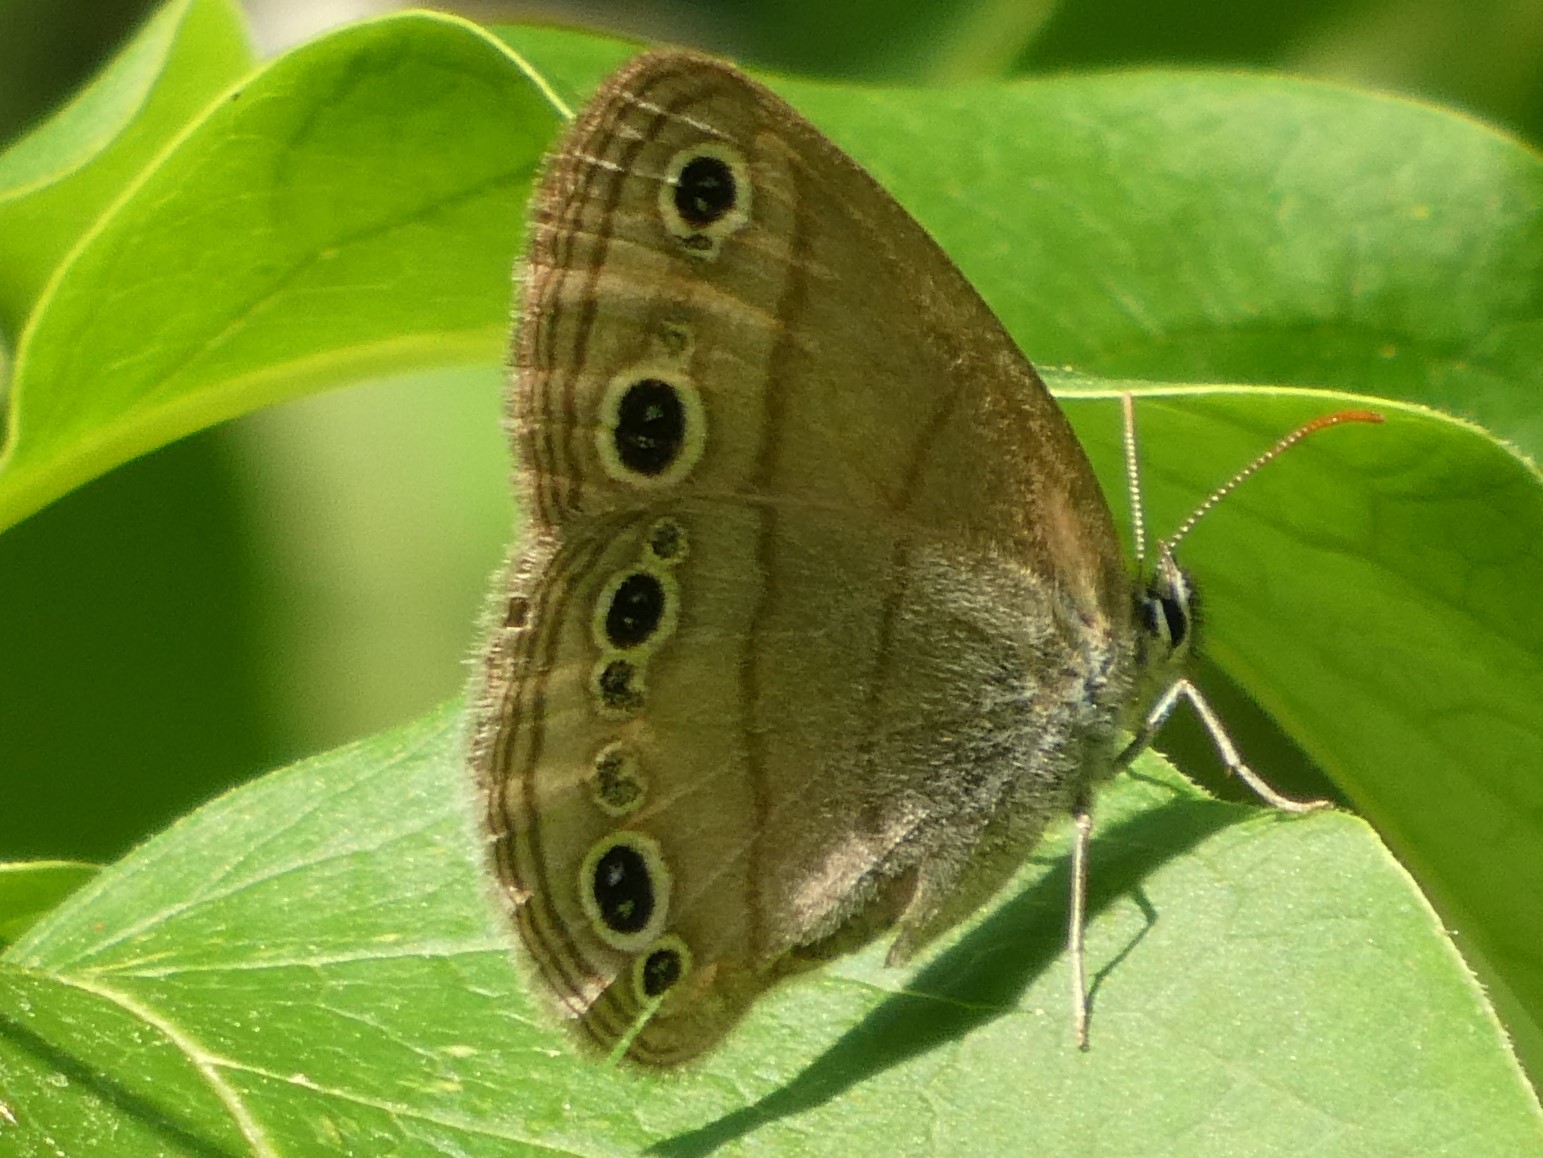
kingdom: Animalia
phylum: Arthropoda
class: Insecta
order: Lepidoptera
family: Nymphalidae
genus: Euptychia
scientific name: Euptychia cymela
